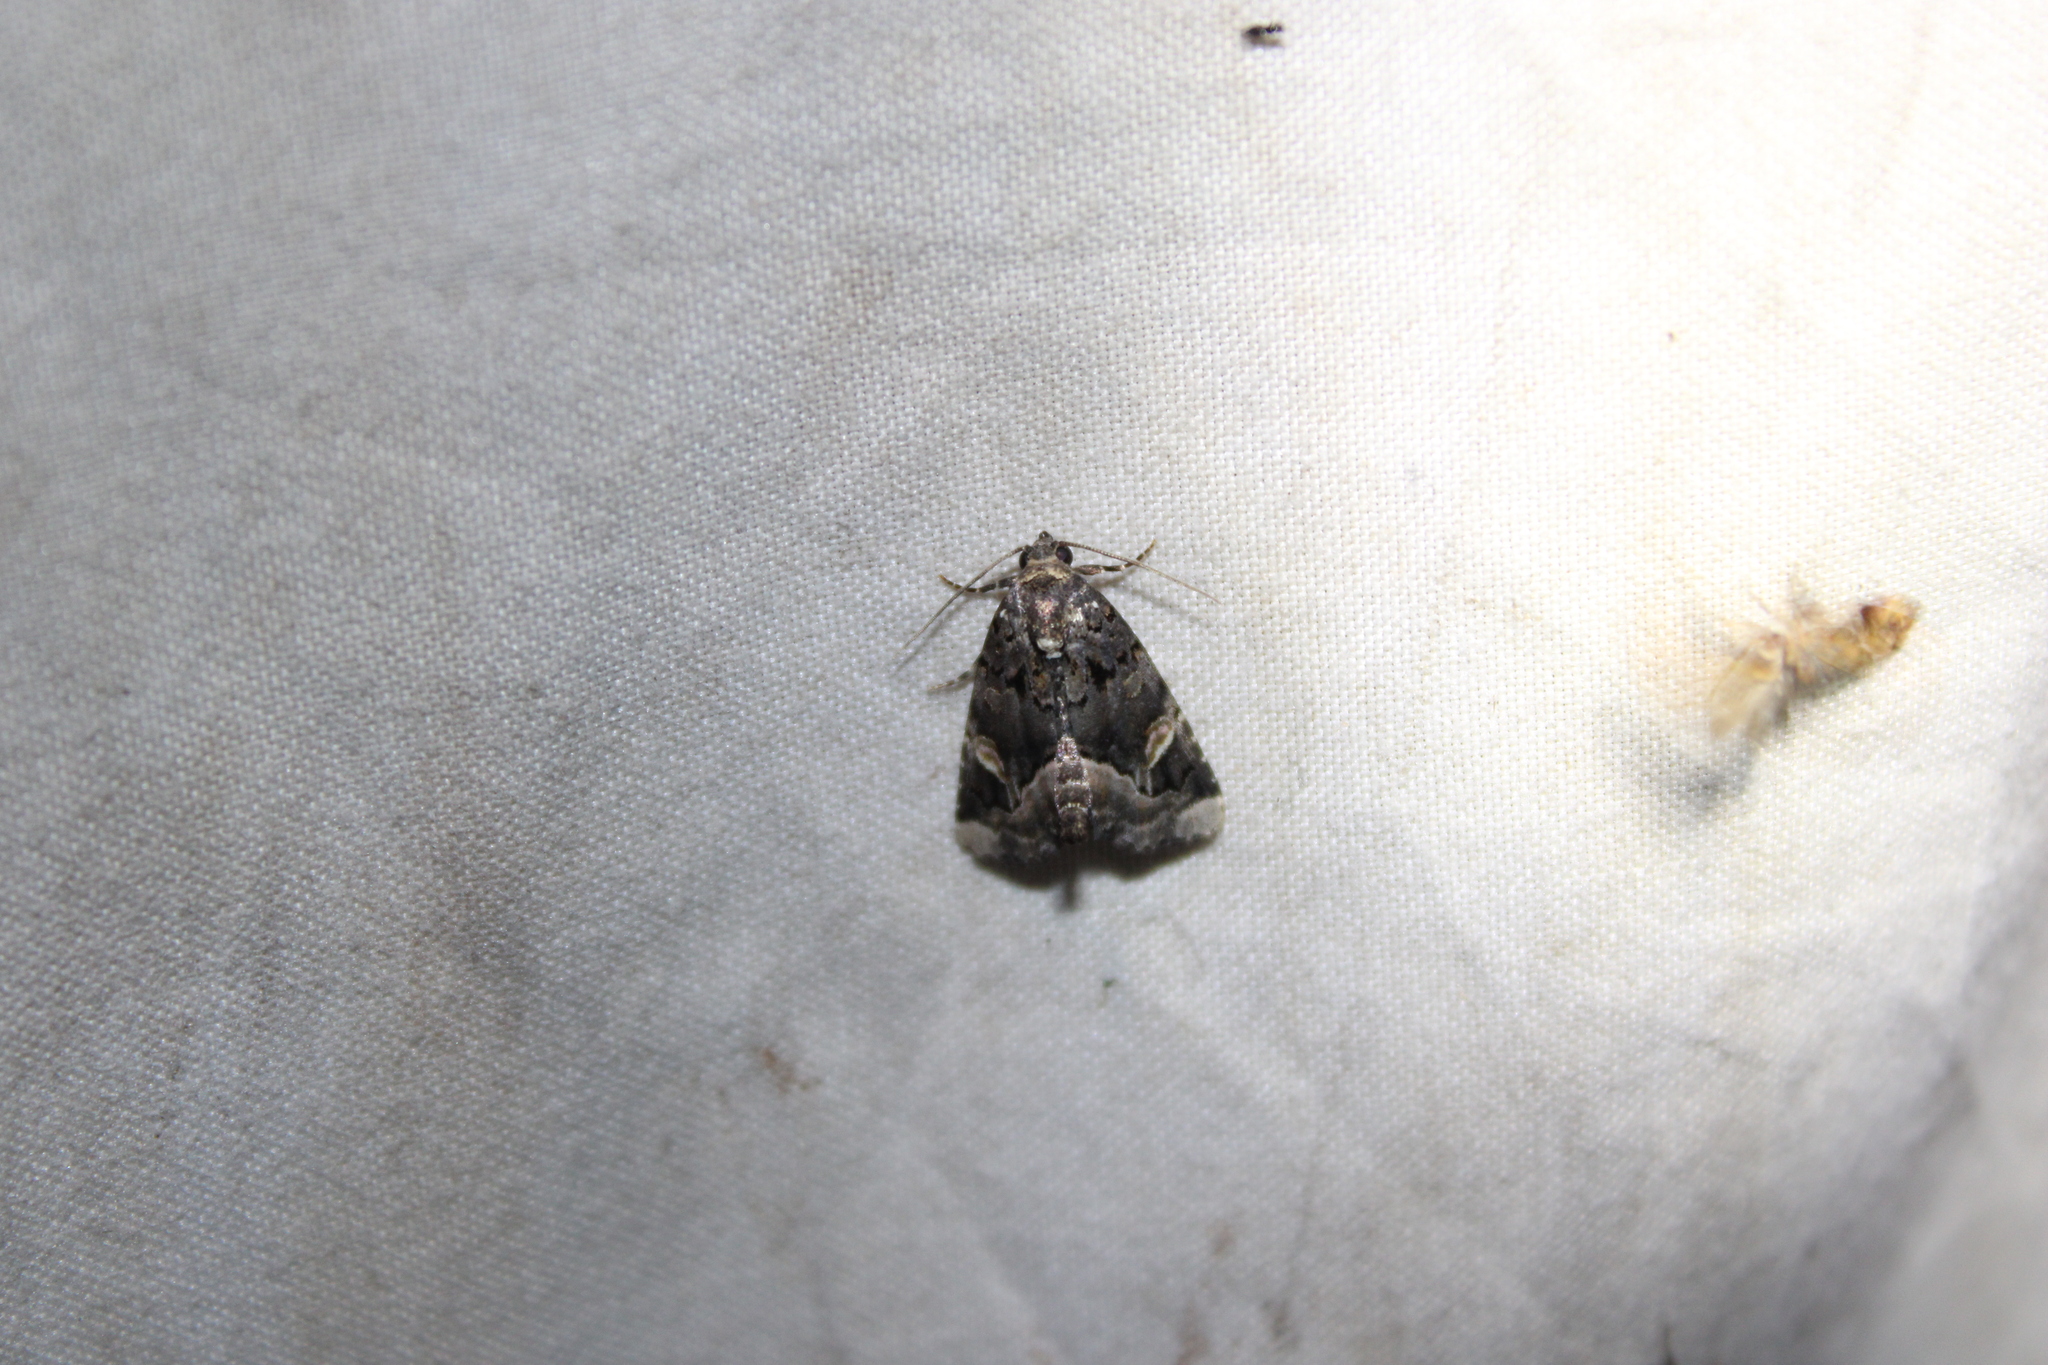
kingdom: Animalia
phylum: Arthropoda
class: Insecta
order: Lepidoptera
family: Noctuidae
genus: Homophoberia
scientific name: Homophoberia apicosa
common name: Black wedge-spot
